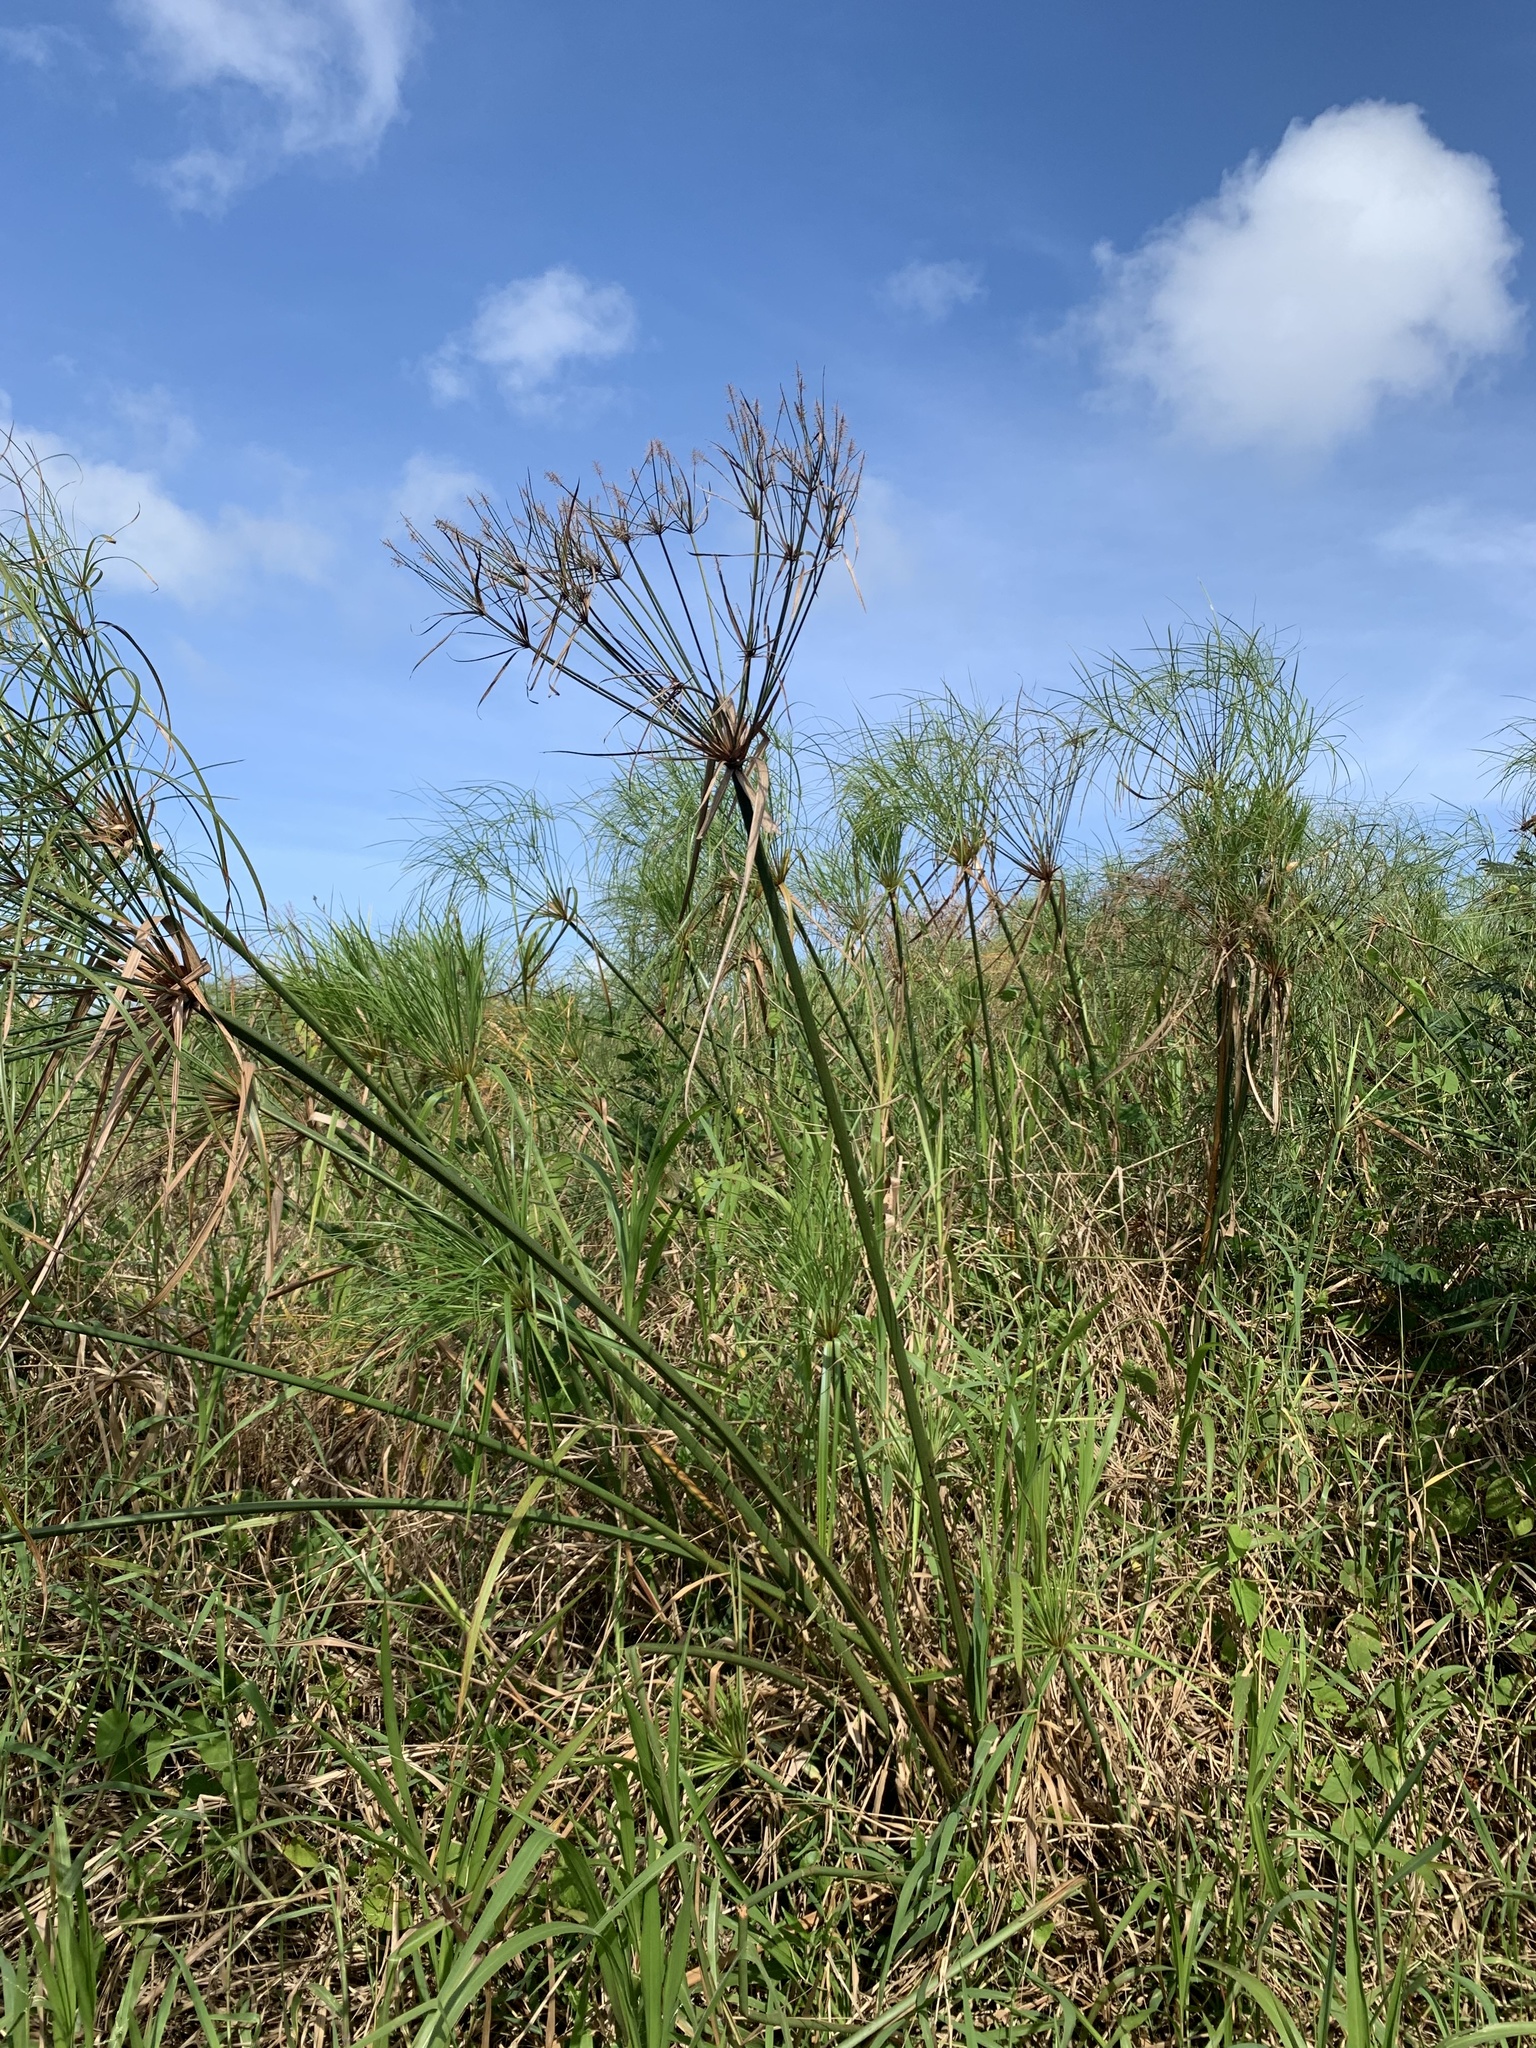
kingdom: Plantae
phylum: Tracheophyta
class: Liliopsida
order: Poales
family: Cyperaceae
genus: Cyperus
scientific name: Cyperus giganteus
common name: Giant flat sedge
